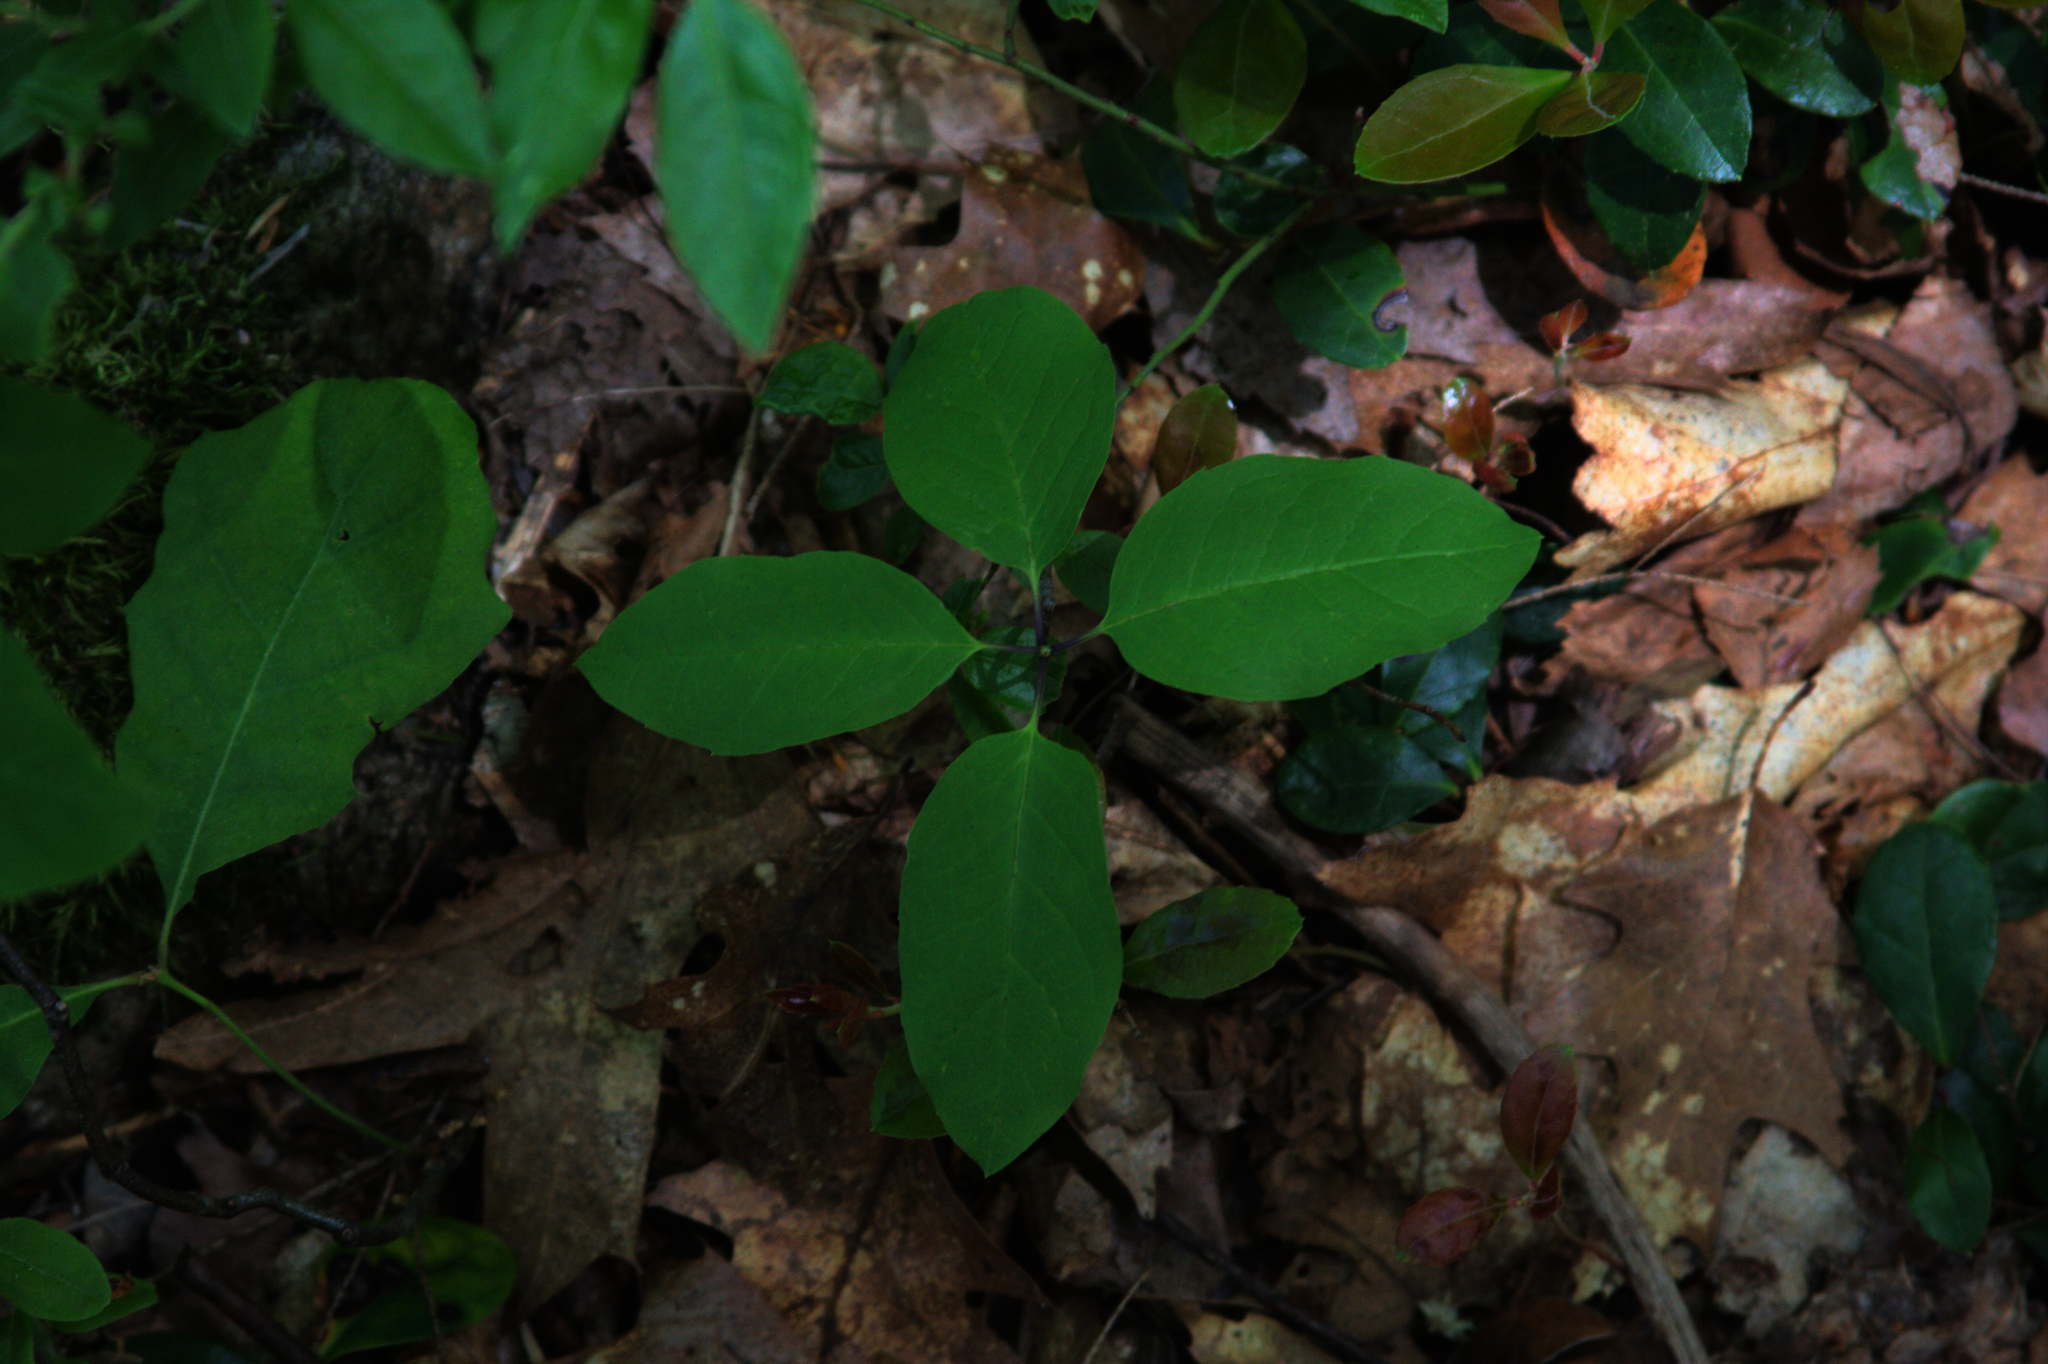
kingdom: Plantae
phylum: Tracheophyta
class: Magnoliopsida
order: Aquifoliales
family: Aquifoliaceae
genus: Ilex
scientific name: Ilex mucronata
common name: Catberry
